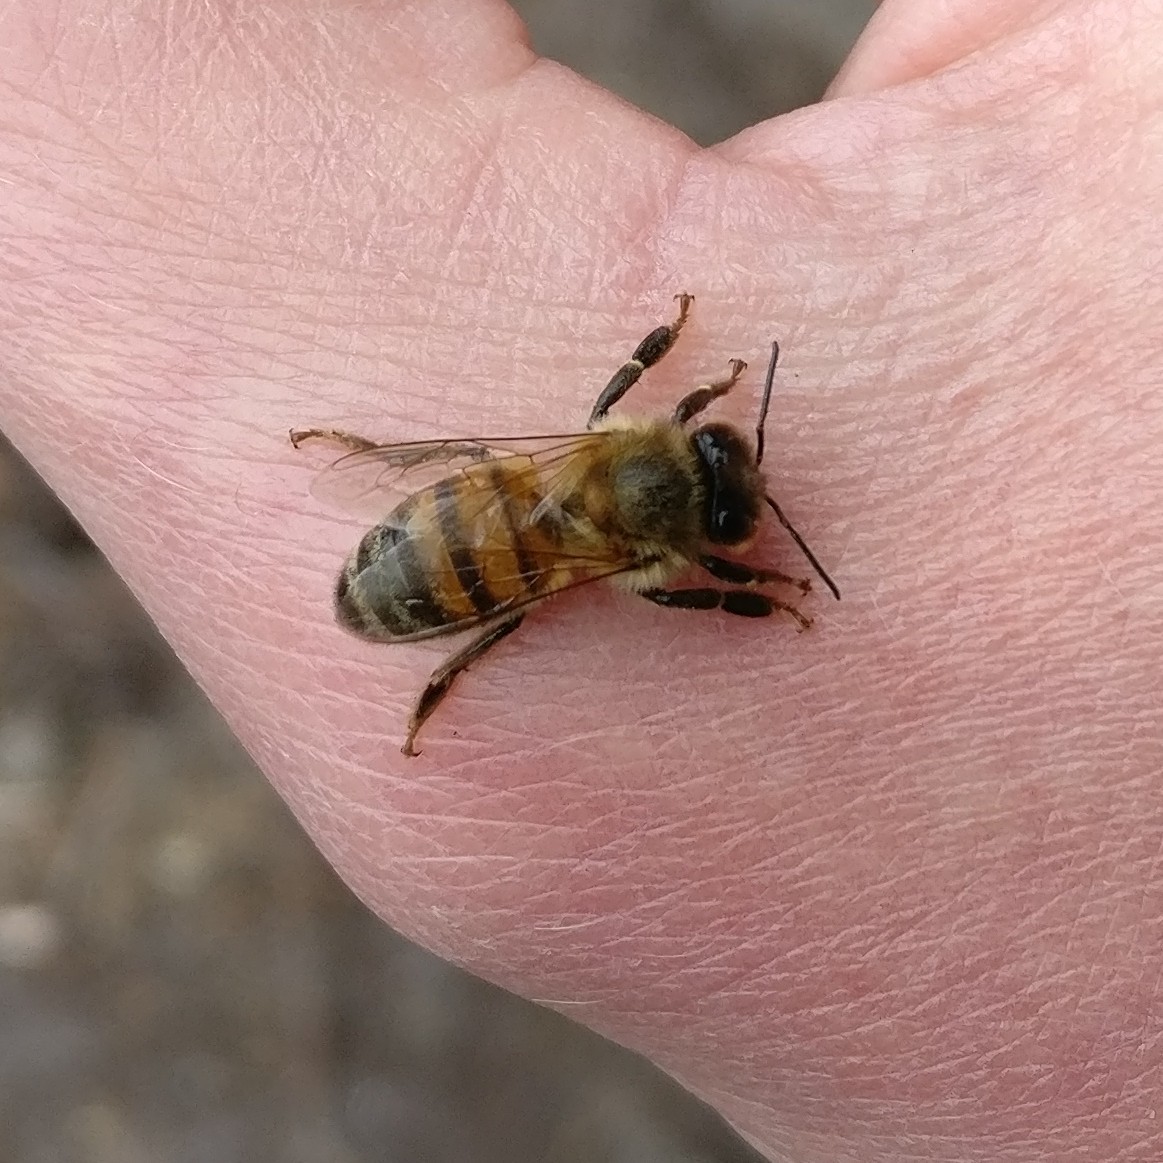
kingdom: Animalia
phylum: Arthropoda
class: Insecta
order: Hymenoptera
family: Apidae
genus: Apis
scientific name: Apis mellifera
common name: Honey bee
